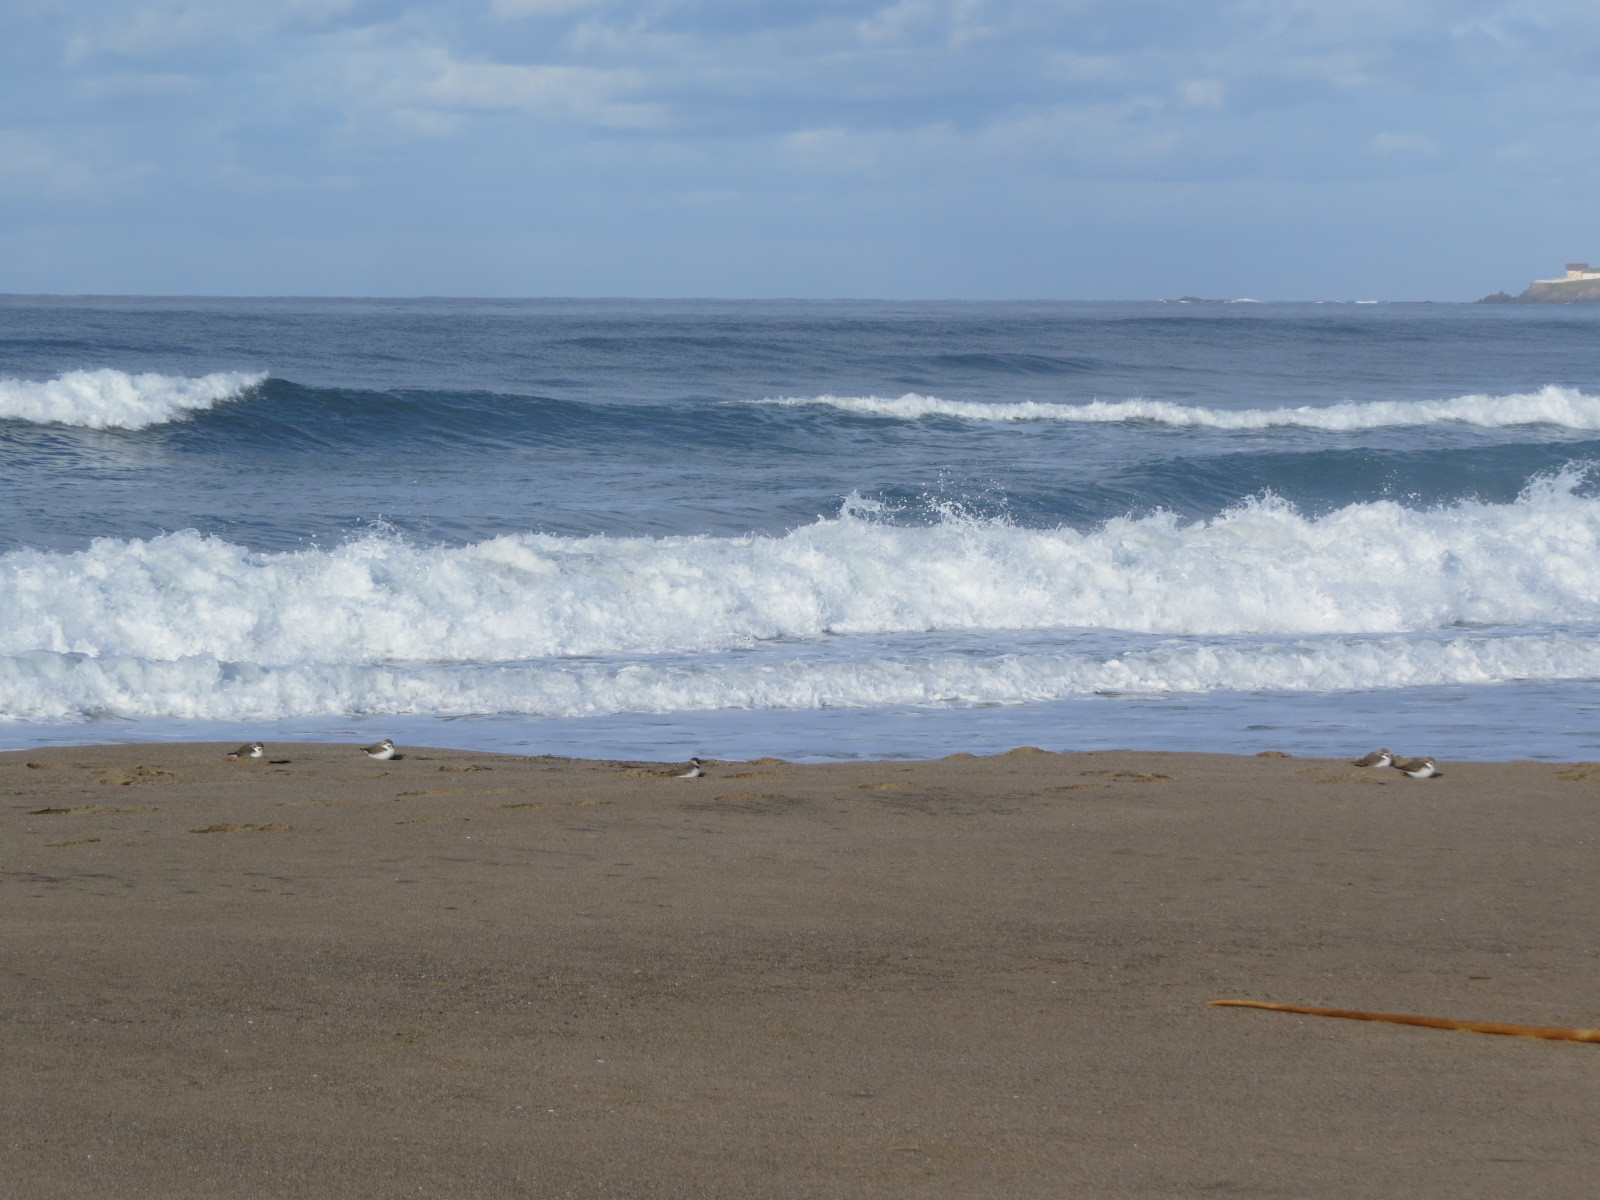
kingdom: Animalia
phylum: Chordata
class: Aves
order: Charadriiformes
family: Charadriidae
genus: Anarhynchus
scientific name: Anarhynchus
